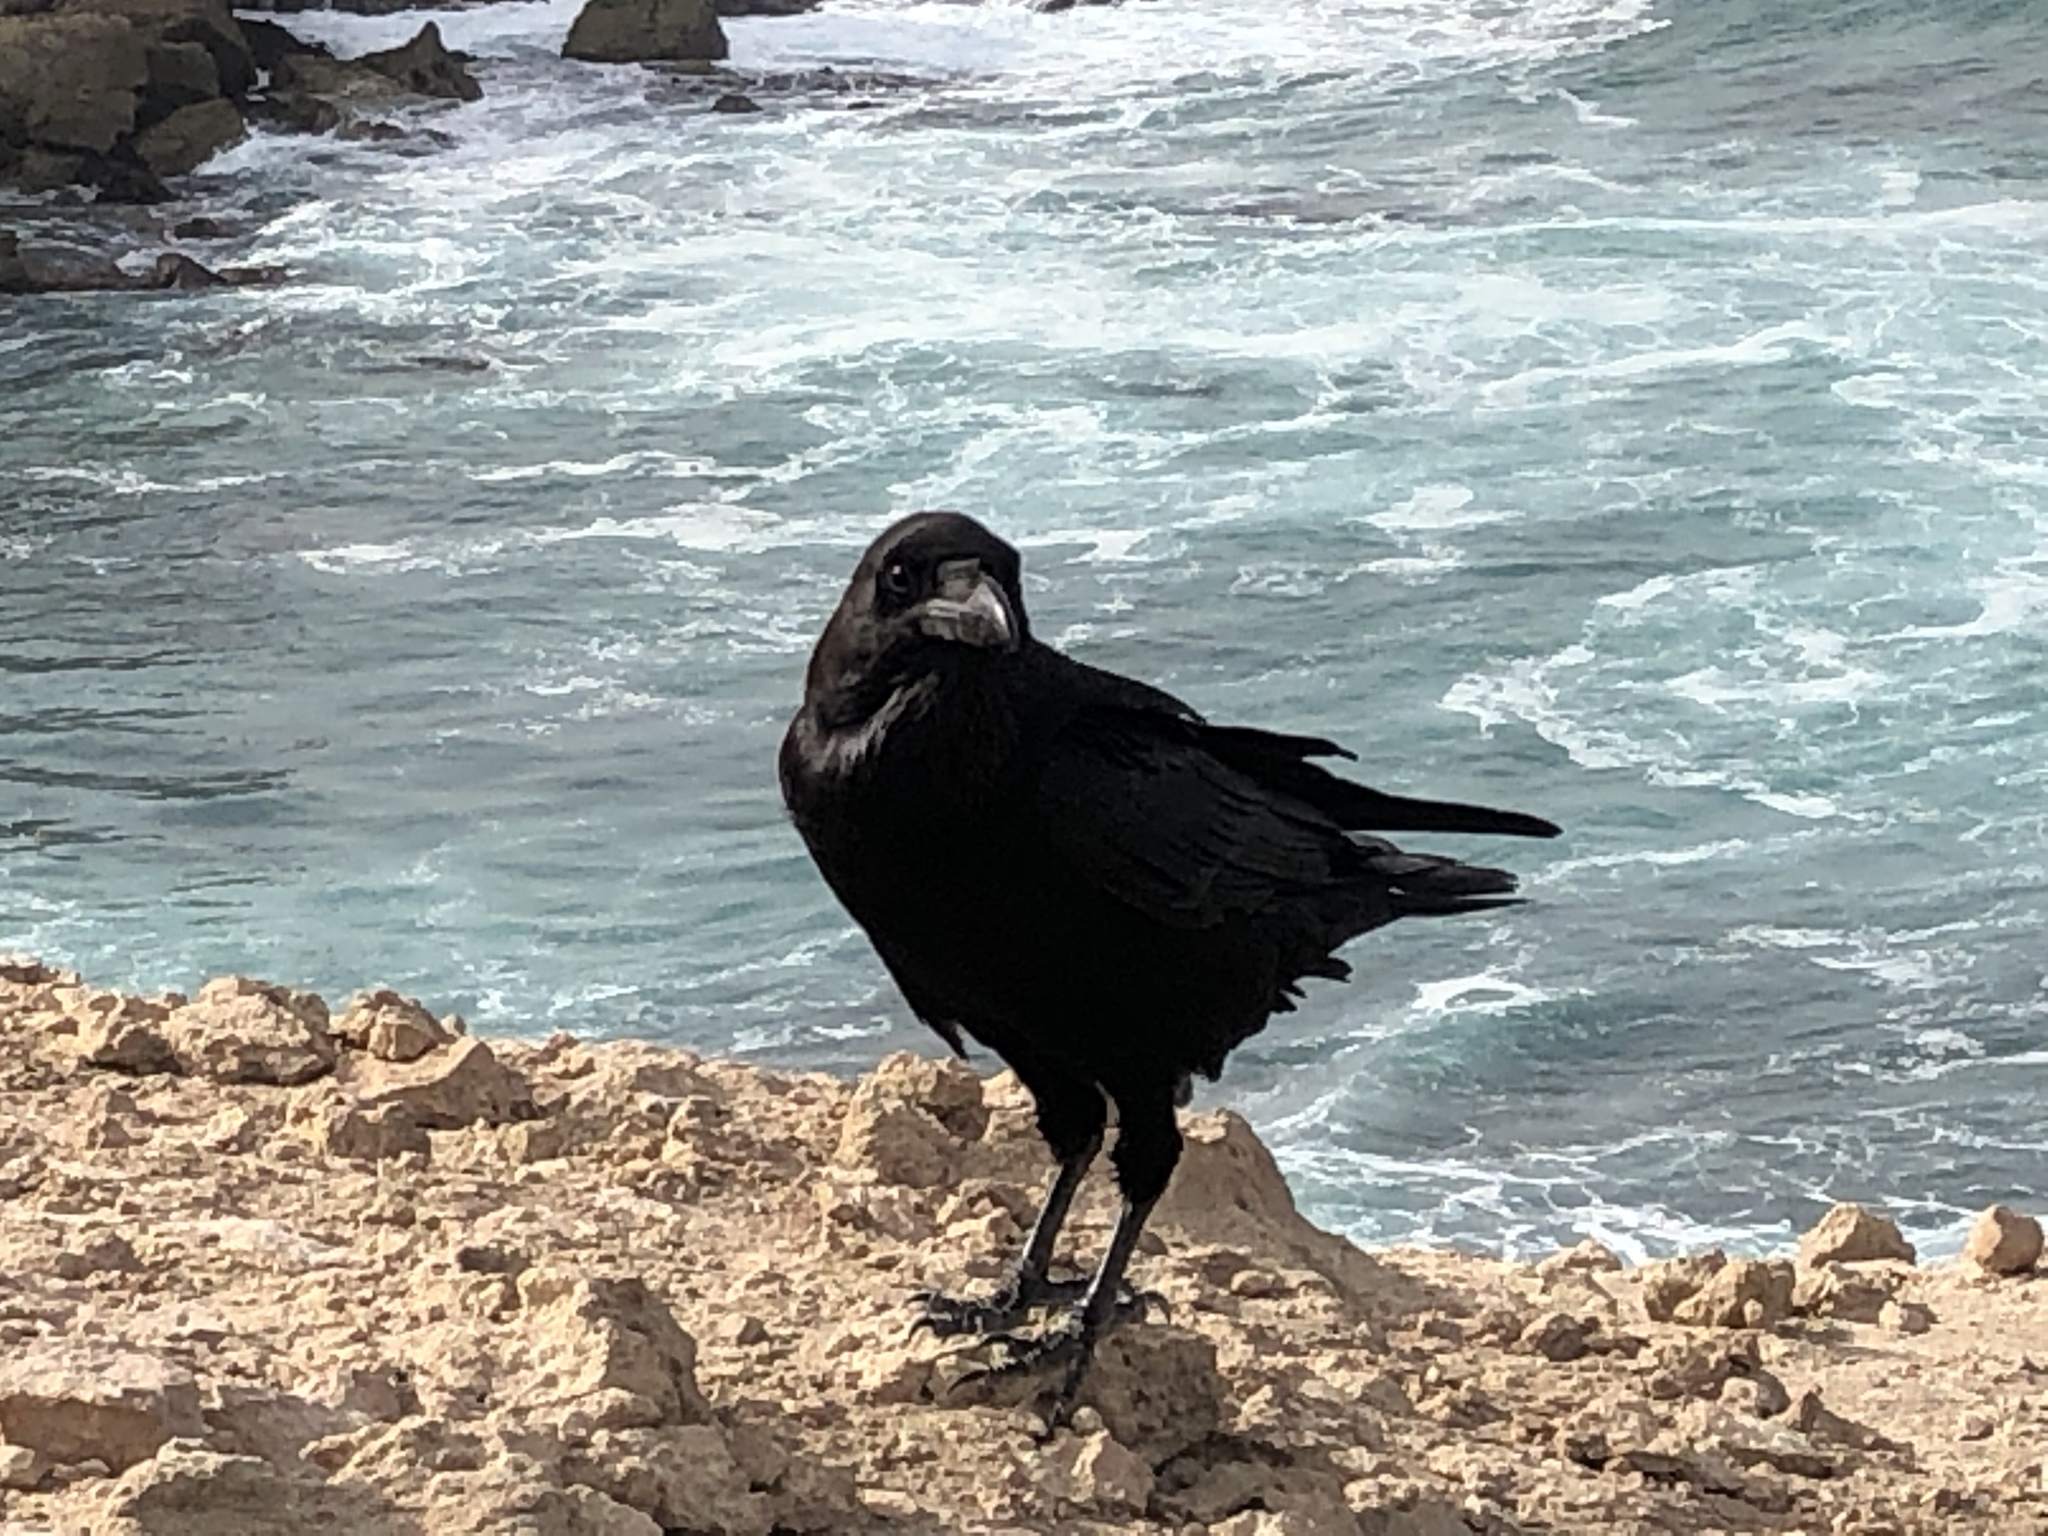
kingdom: Animalia
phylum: Chordata
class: Aves
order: Passeriformes
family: Corvidae
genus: Corvus
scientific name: Corvus corax
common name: Common raven
